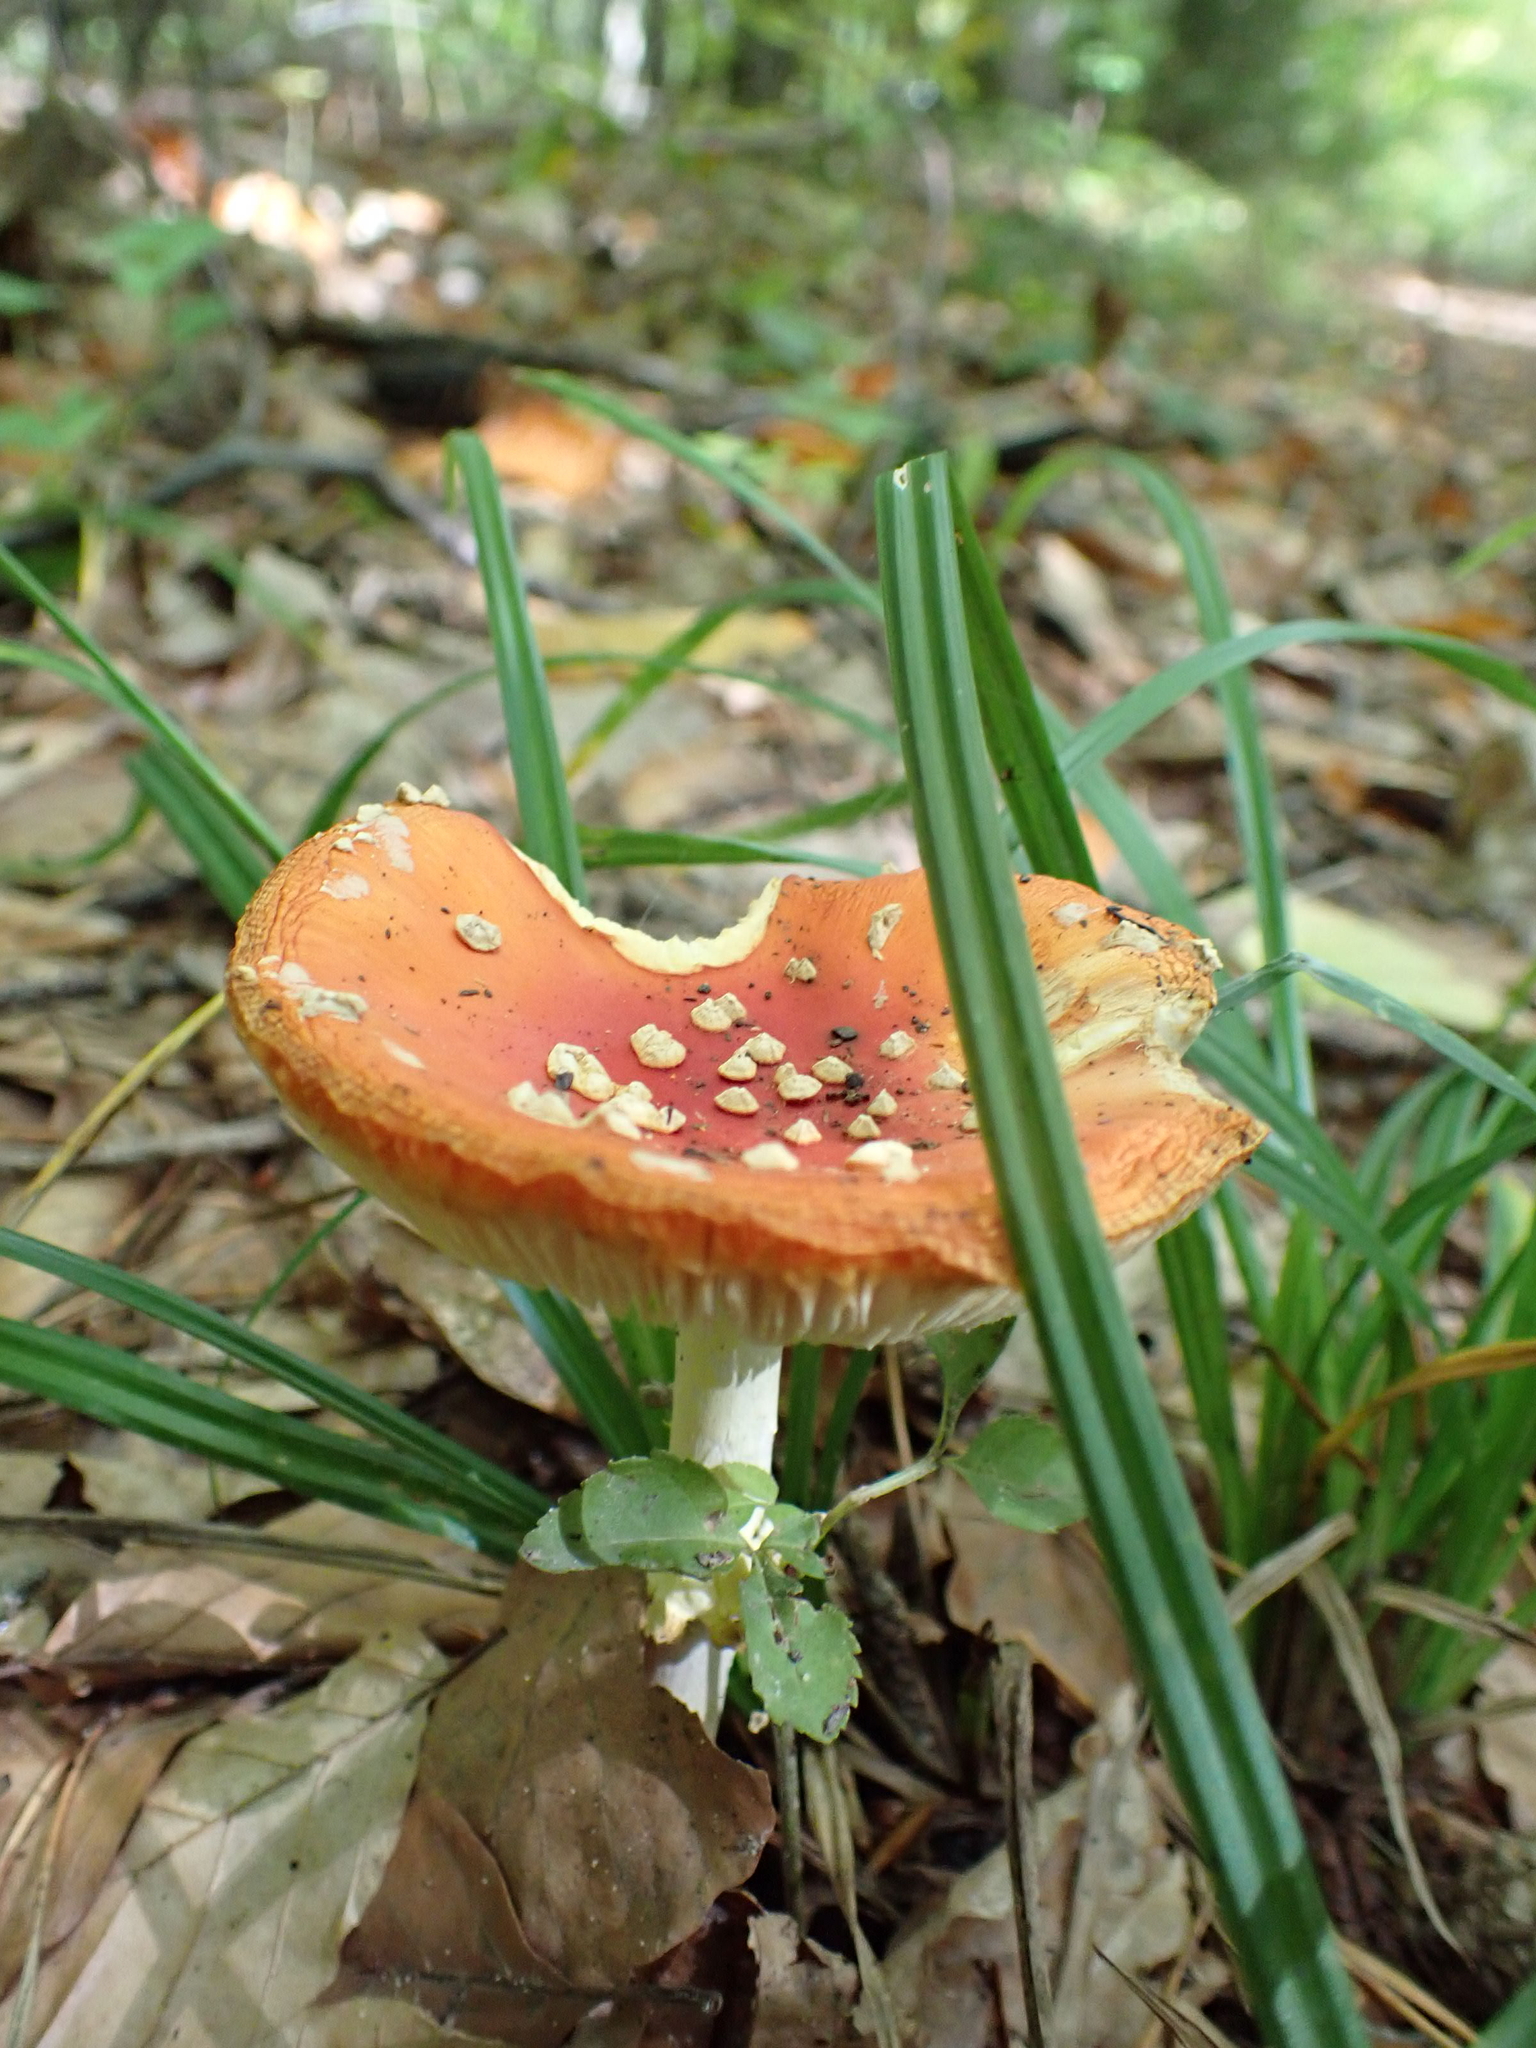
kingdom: Fungi
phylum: Basidiomycota
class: Agaricomycetes
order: Agaricales
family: Amanitaceae
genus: Amanita
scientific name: Amanita muscaria
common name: Fly agaric
